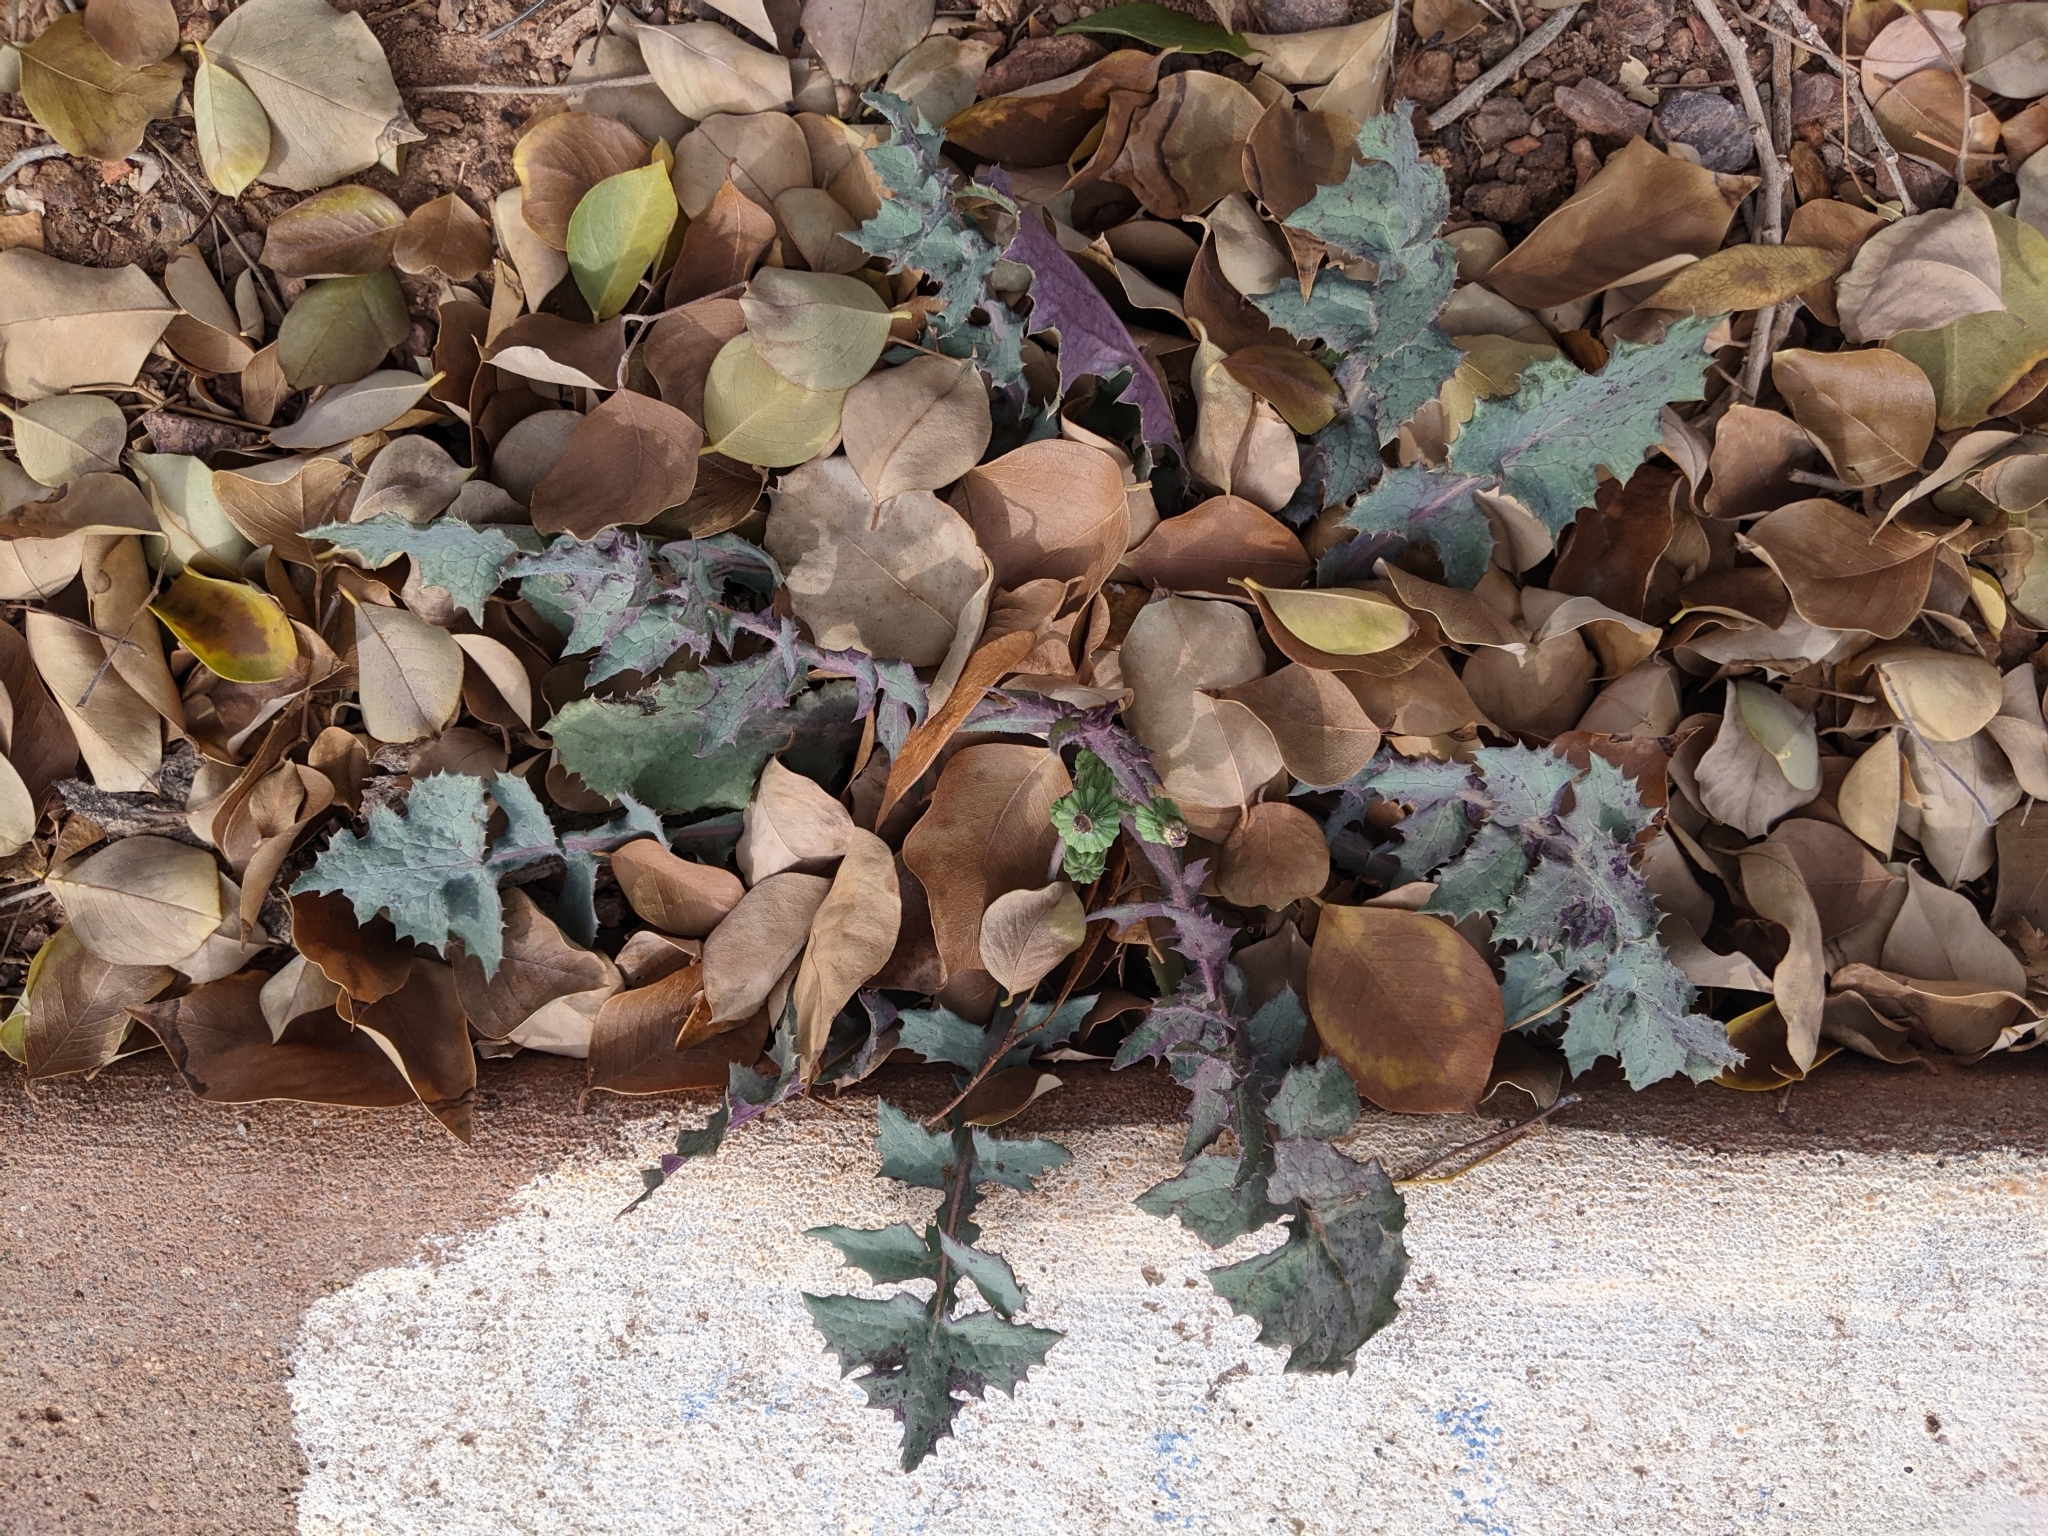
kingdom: Plantae
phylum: Tracheophyta
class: Magnoliopsida
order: Asterales
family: Asteraceae
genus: Sonchus
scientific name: Sonchus asper
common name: Prickly sow-thistle
